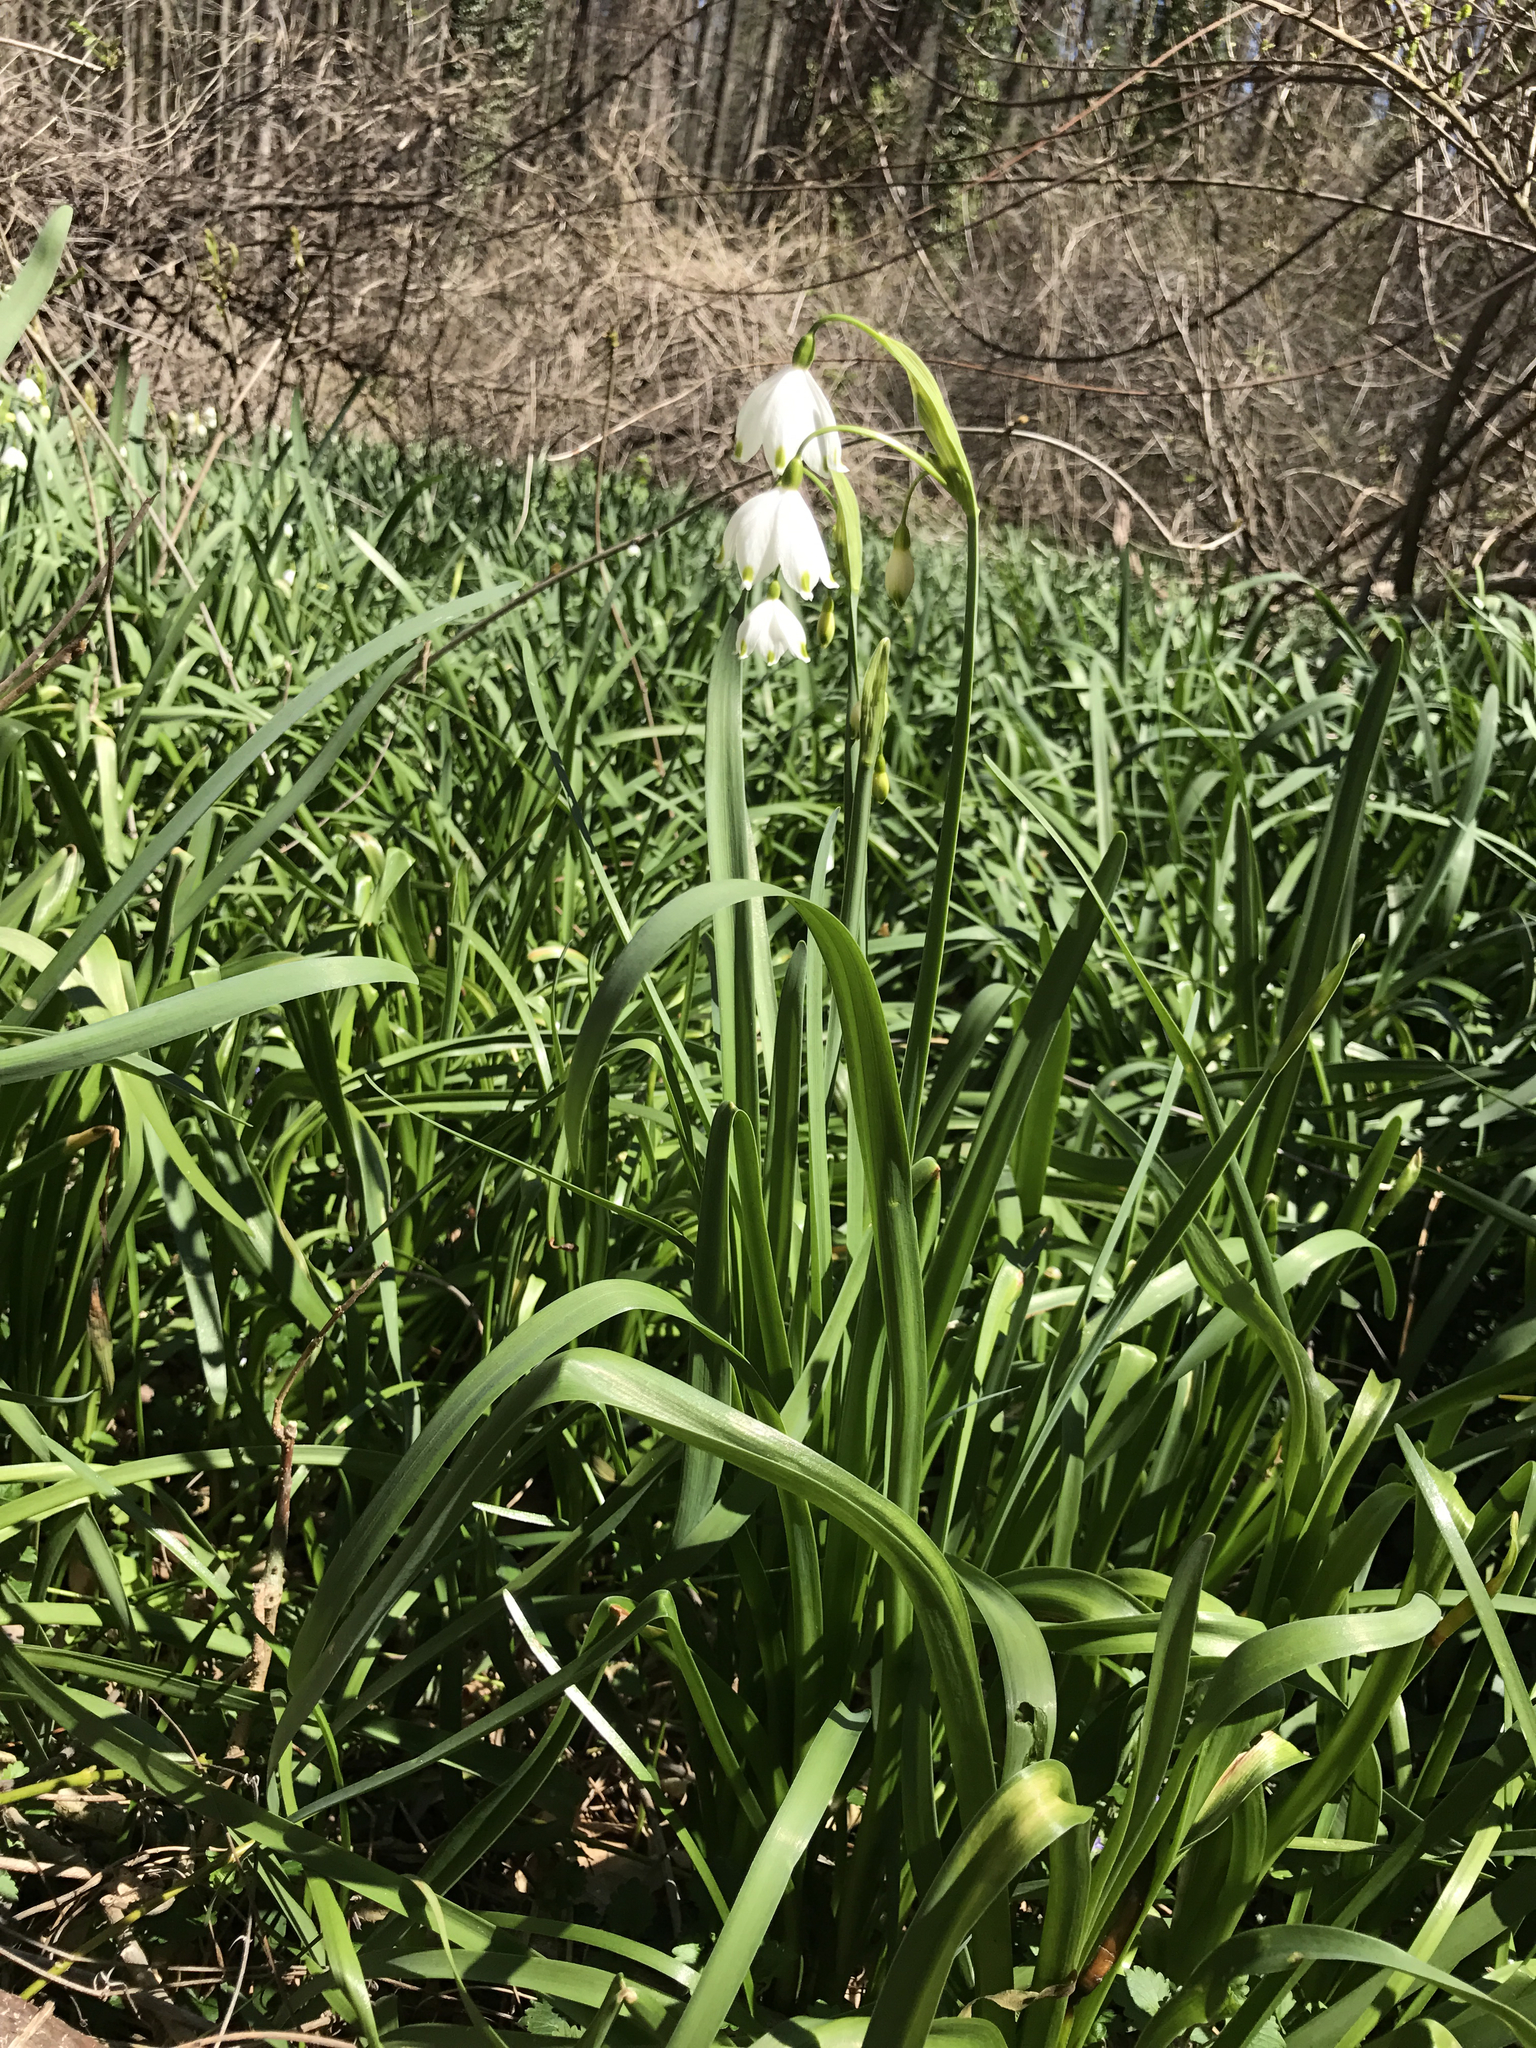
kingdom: Plantae
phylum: Tracheophyta
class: Liliopsida
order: Asparagales
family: Amaryllidaceae
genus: Leucojum
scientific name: Leucojum aestivum
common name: Summer snowflake
